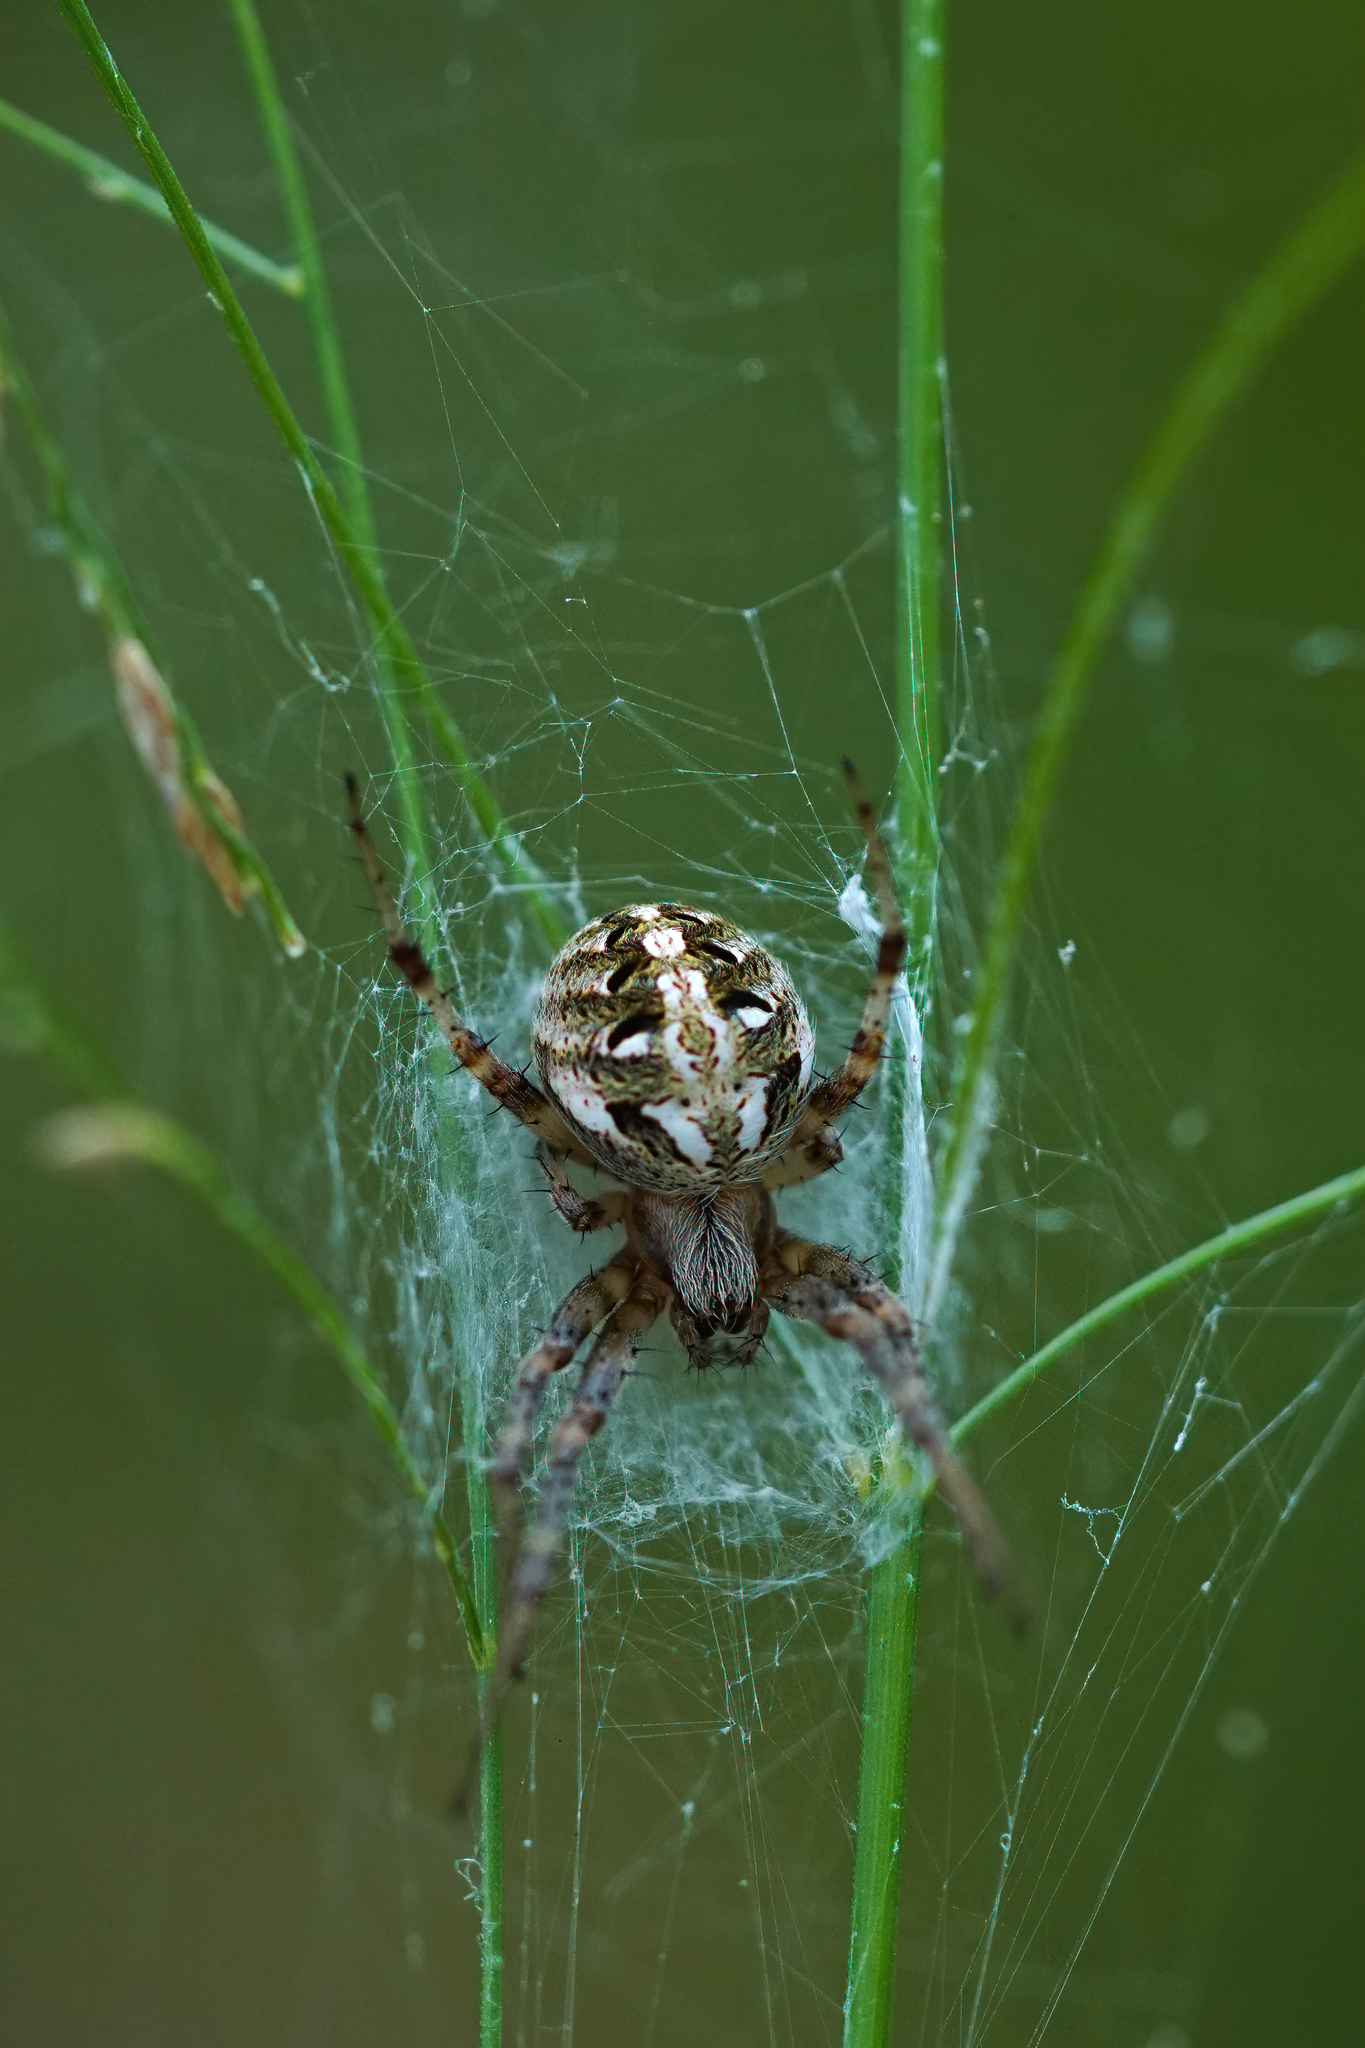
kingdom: Animalia
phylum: Arthropoda
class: Arachnida
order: Araneae
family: Araneidae
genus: Neoscona
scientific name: Neoscona arabesca
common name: Orb weavers
